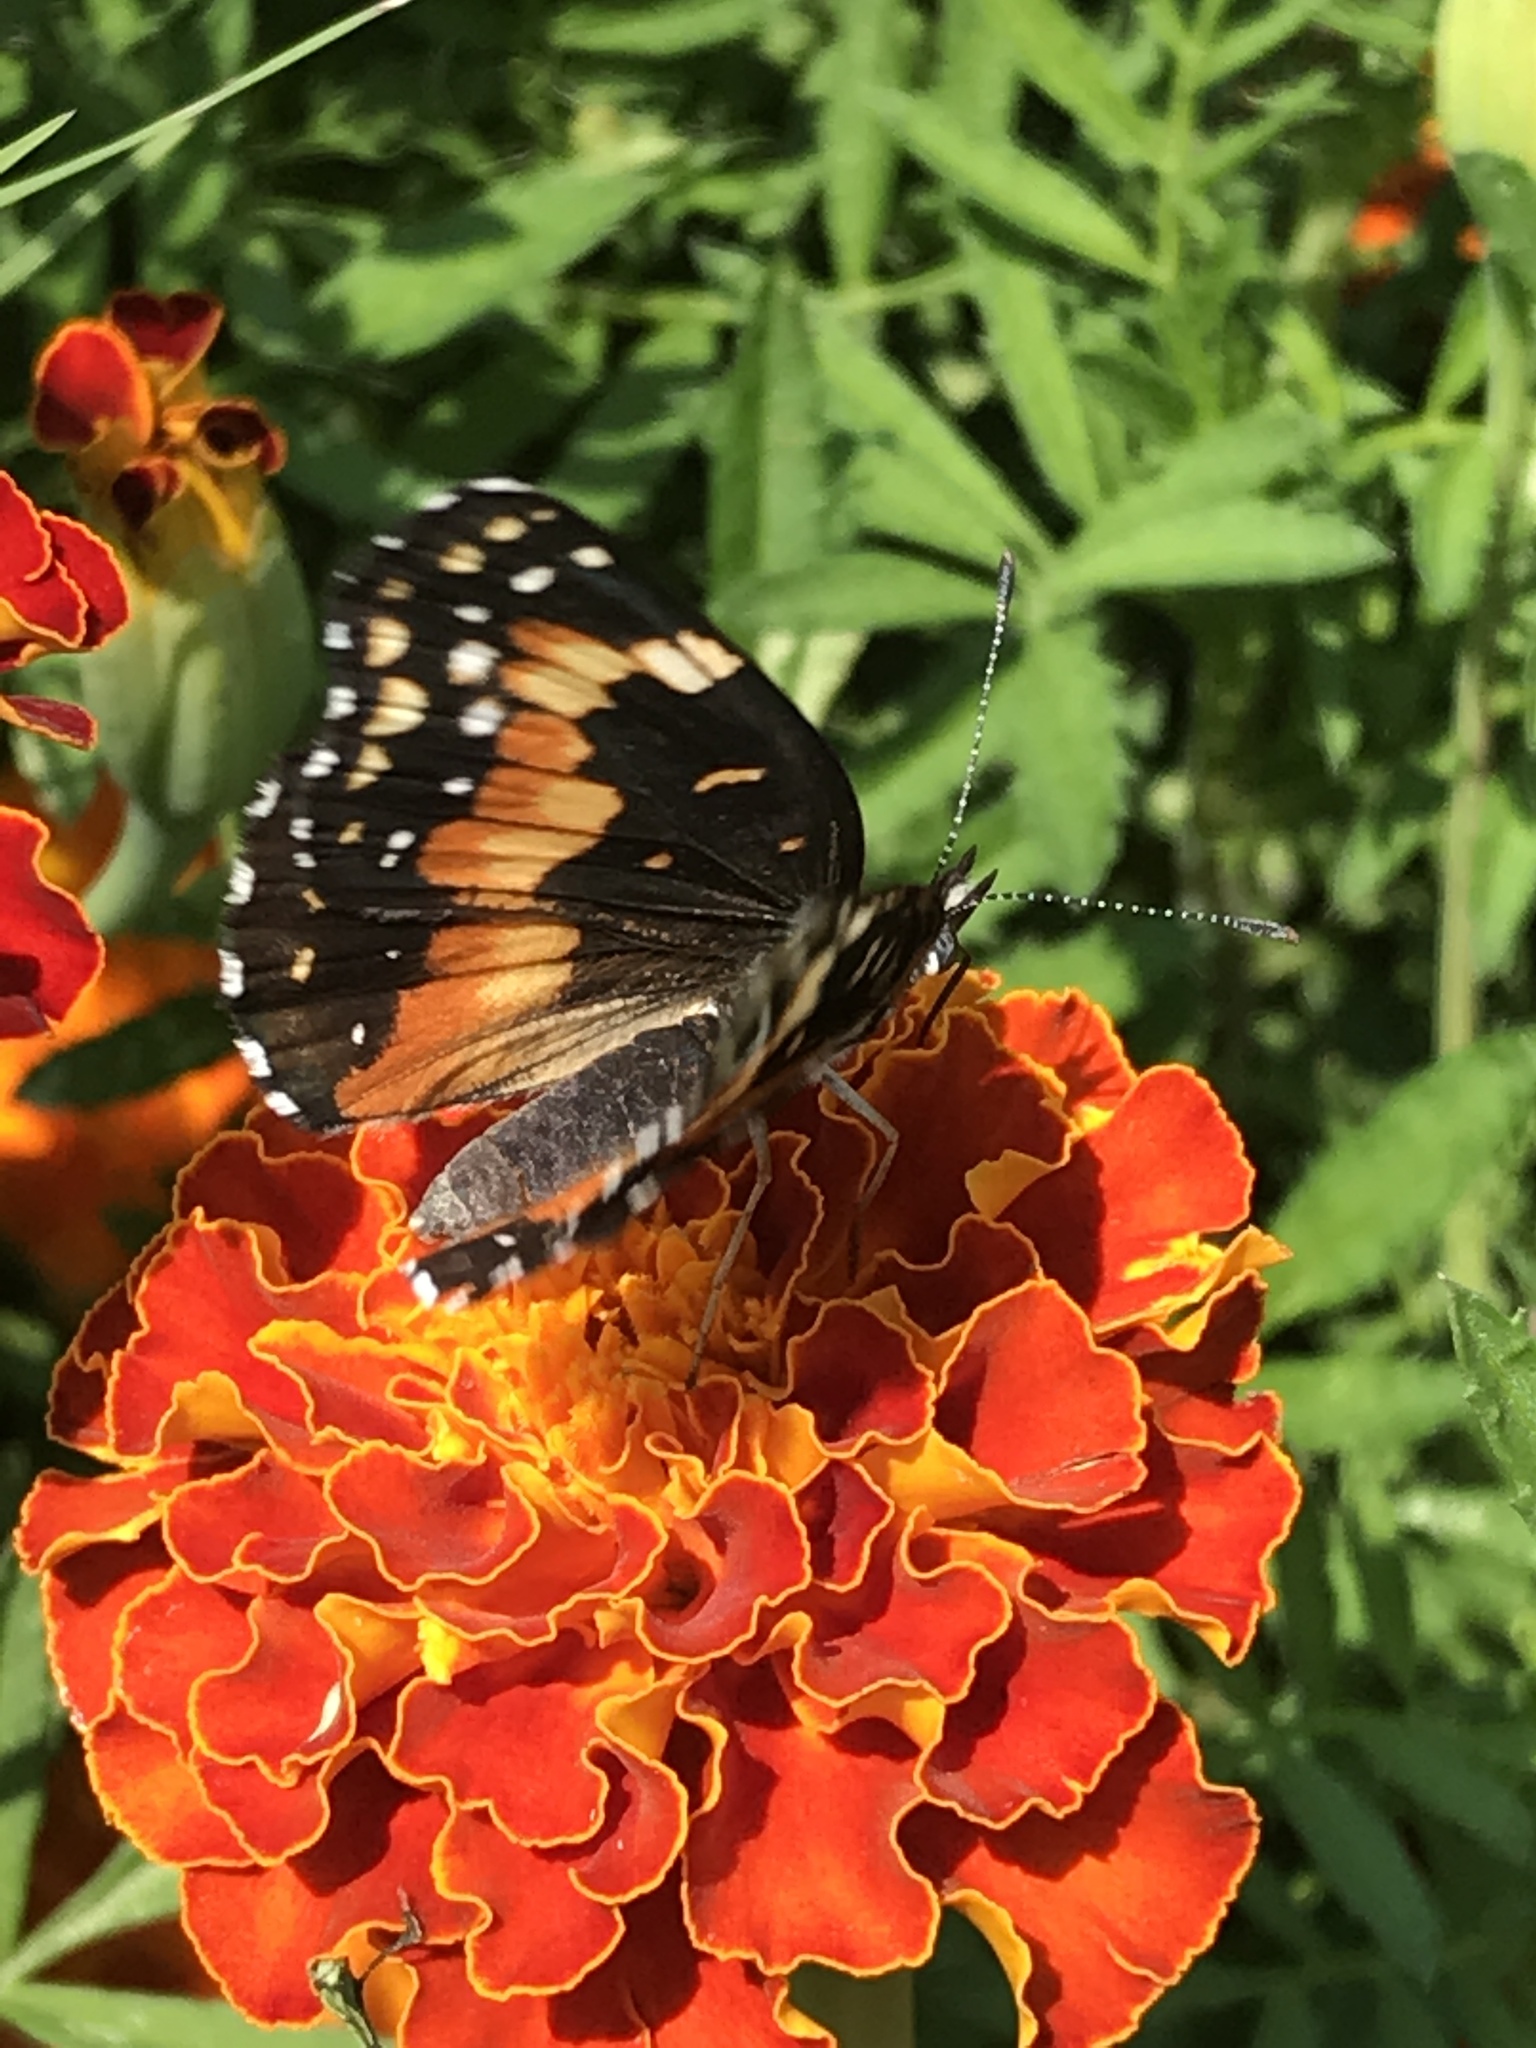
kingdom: Animalia
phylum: Arthropoda
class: Insecta
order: Lepidoptera
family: Nymphalidae
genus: Chlosyne
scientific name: Chlosyne lacinia
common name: Bordered patch
